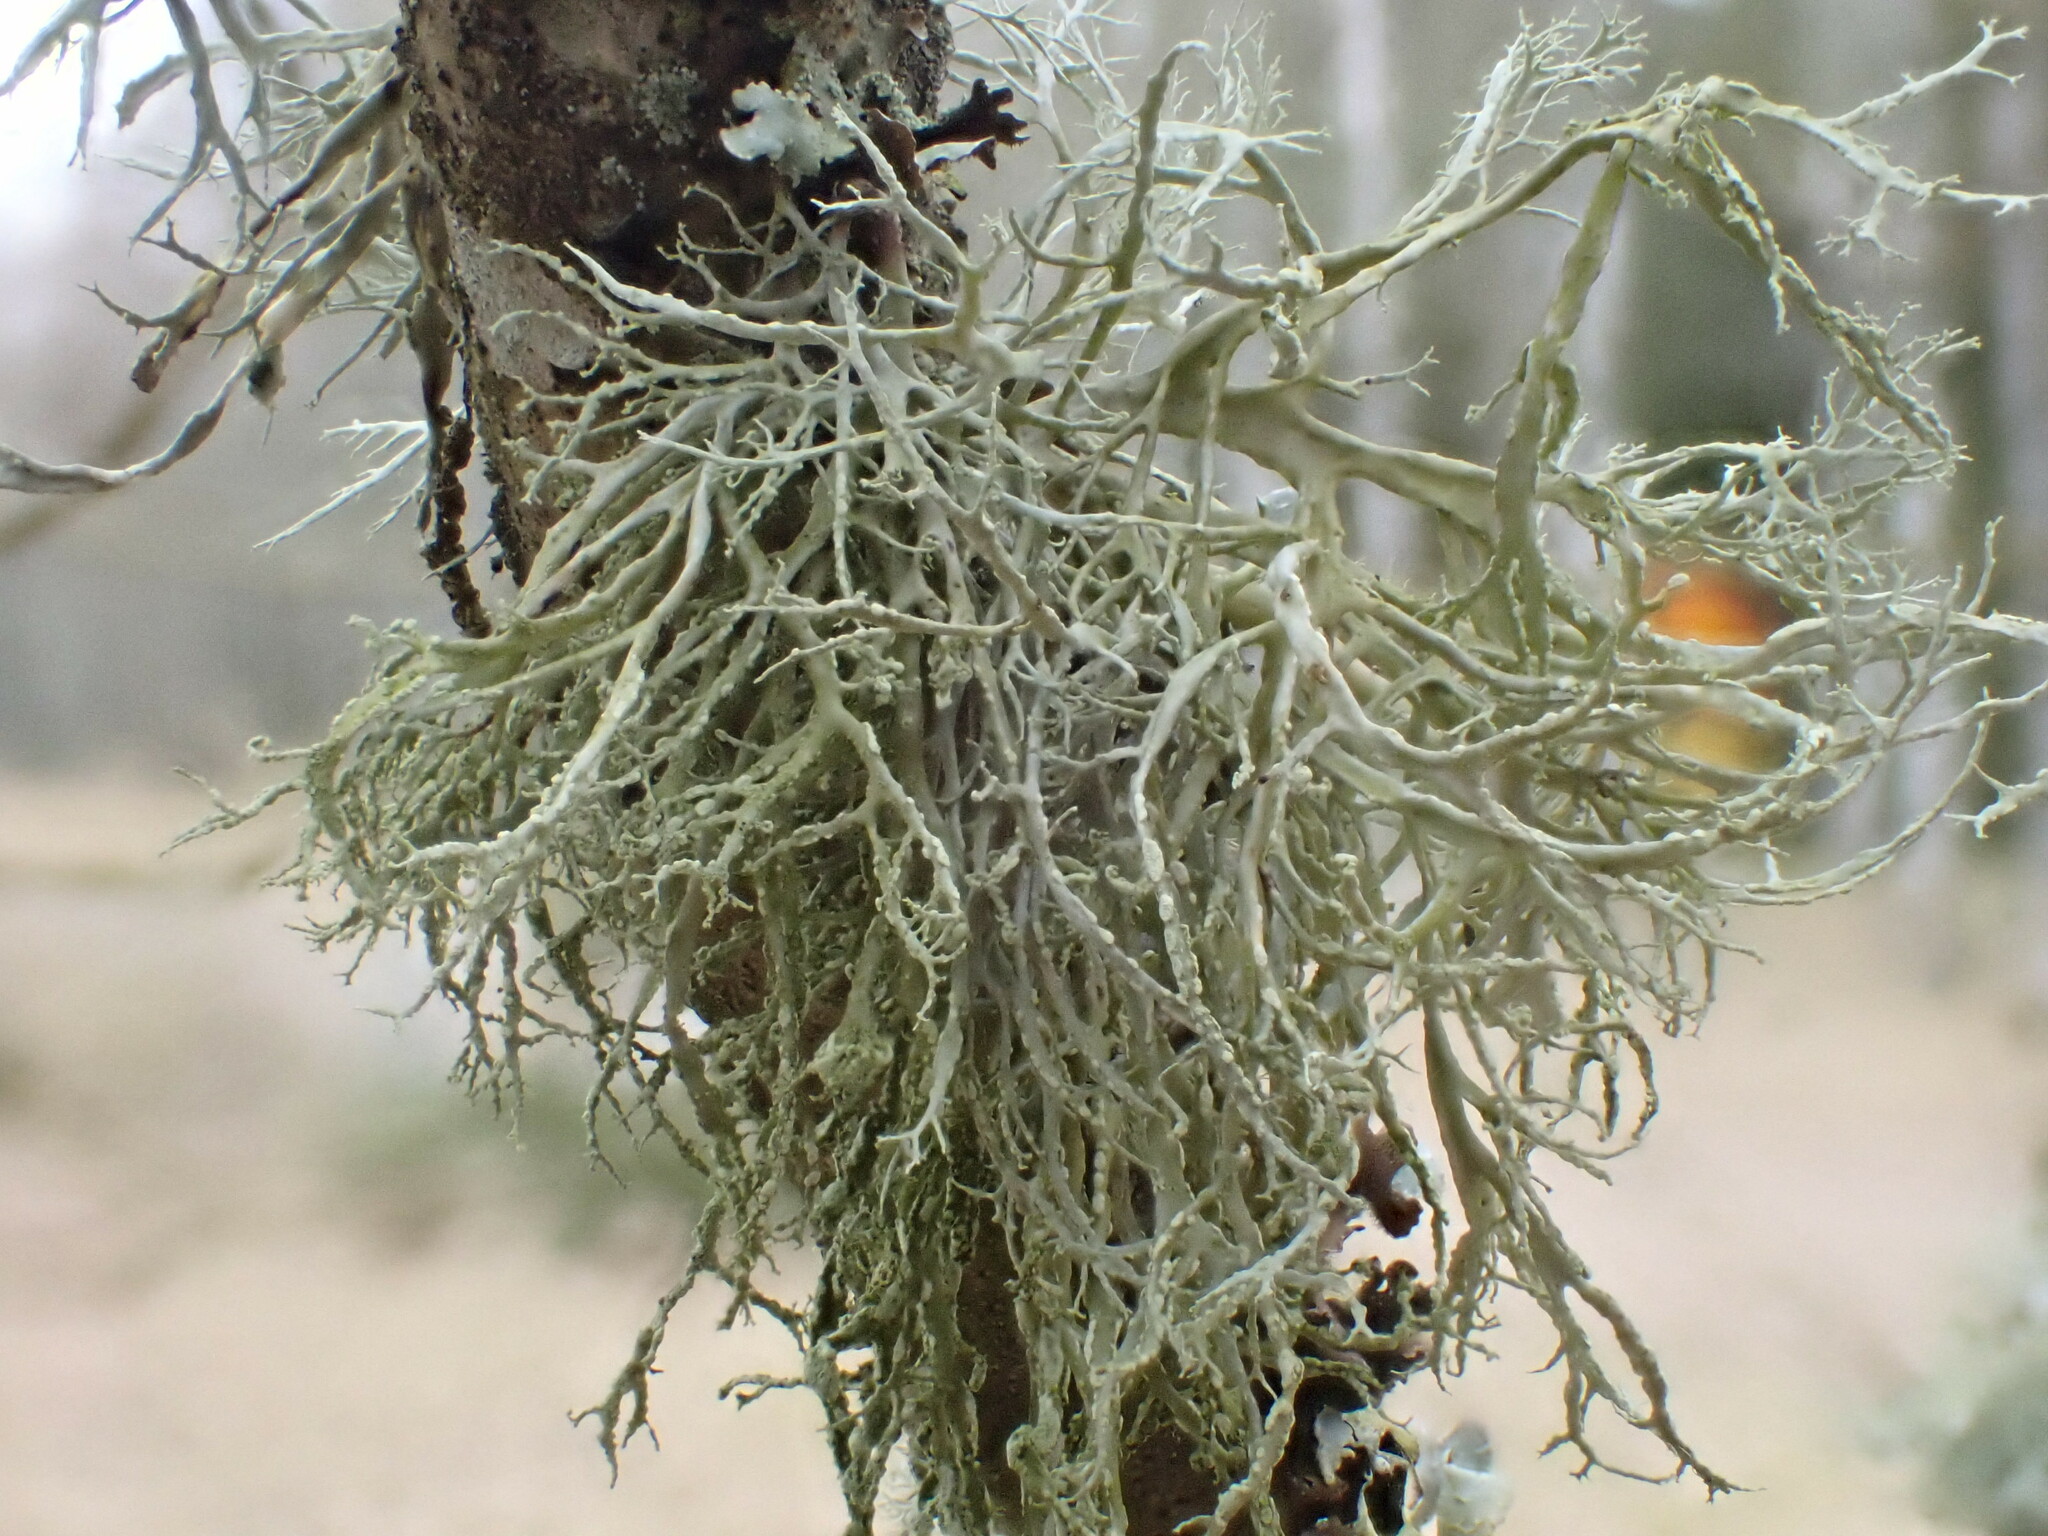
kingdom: Fungi
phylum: Ascomycota
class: Lecanoromycetes
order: Lecanorales
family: Ramalinaceae
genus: Ramalina
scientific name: Ramalina farinacea
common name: Farinose cartilage lichen
